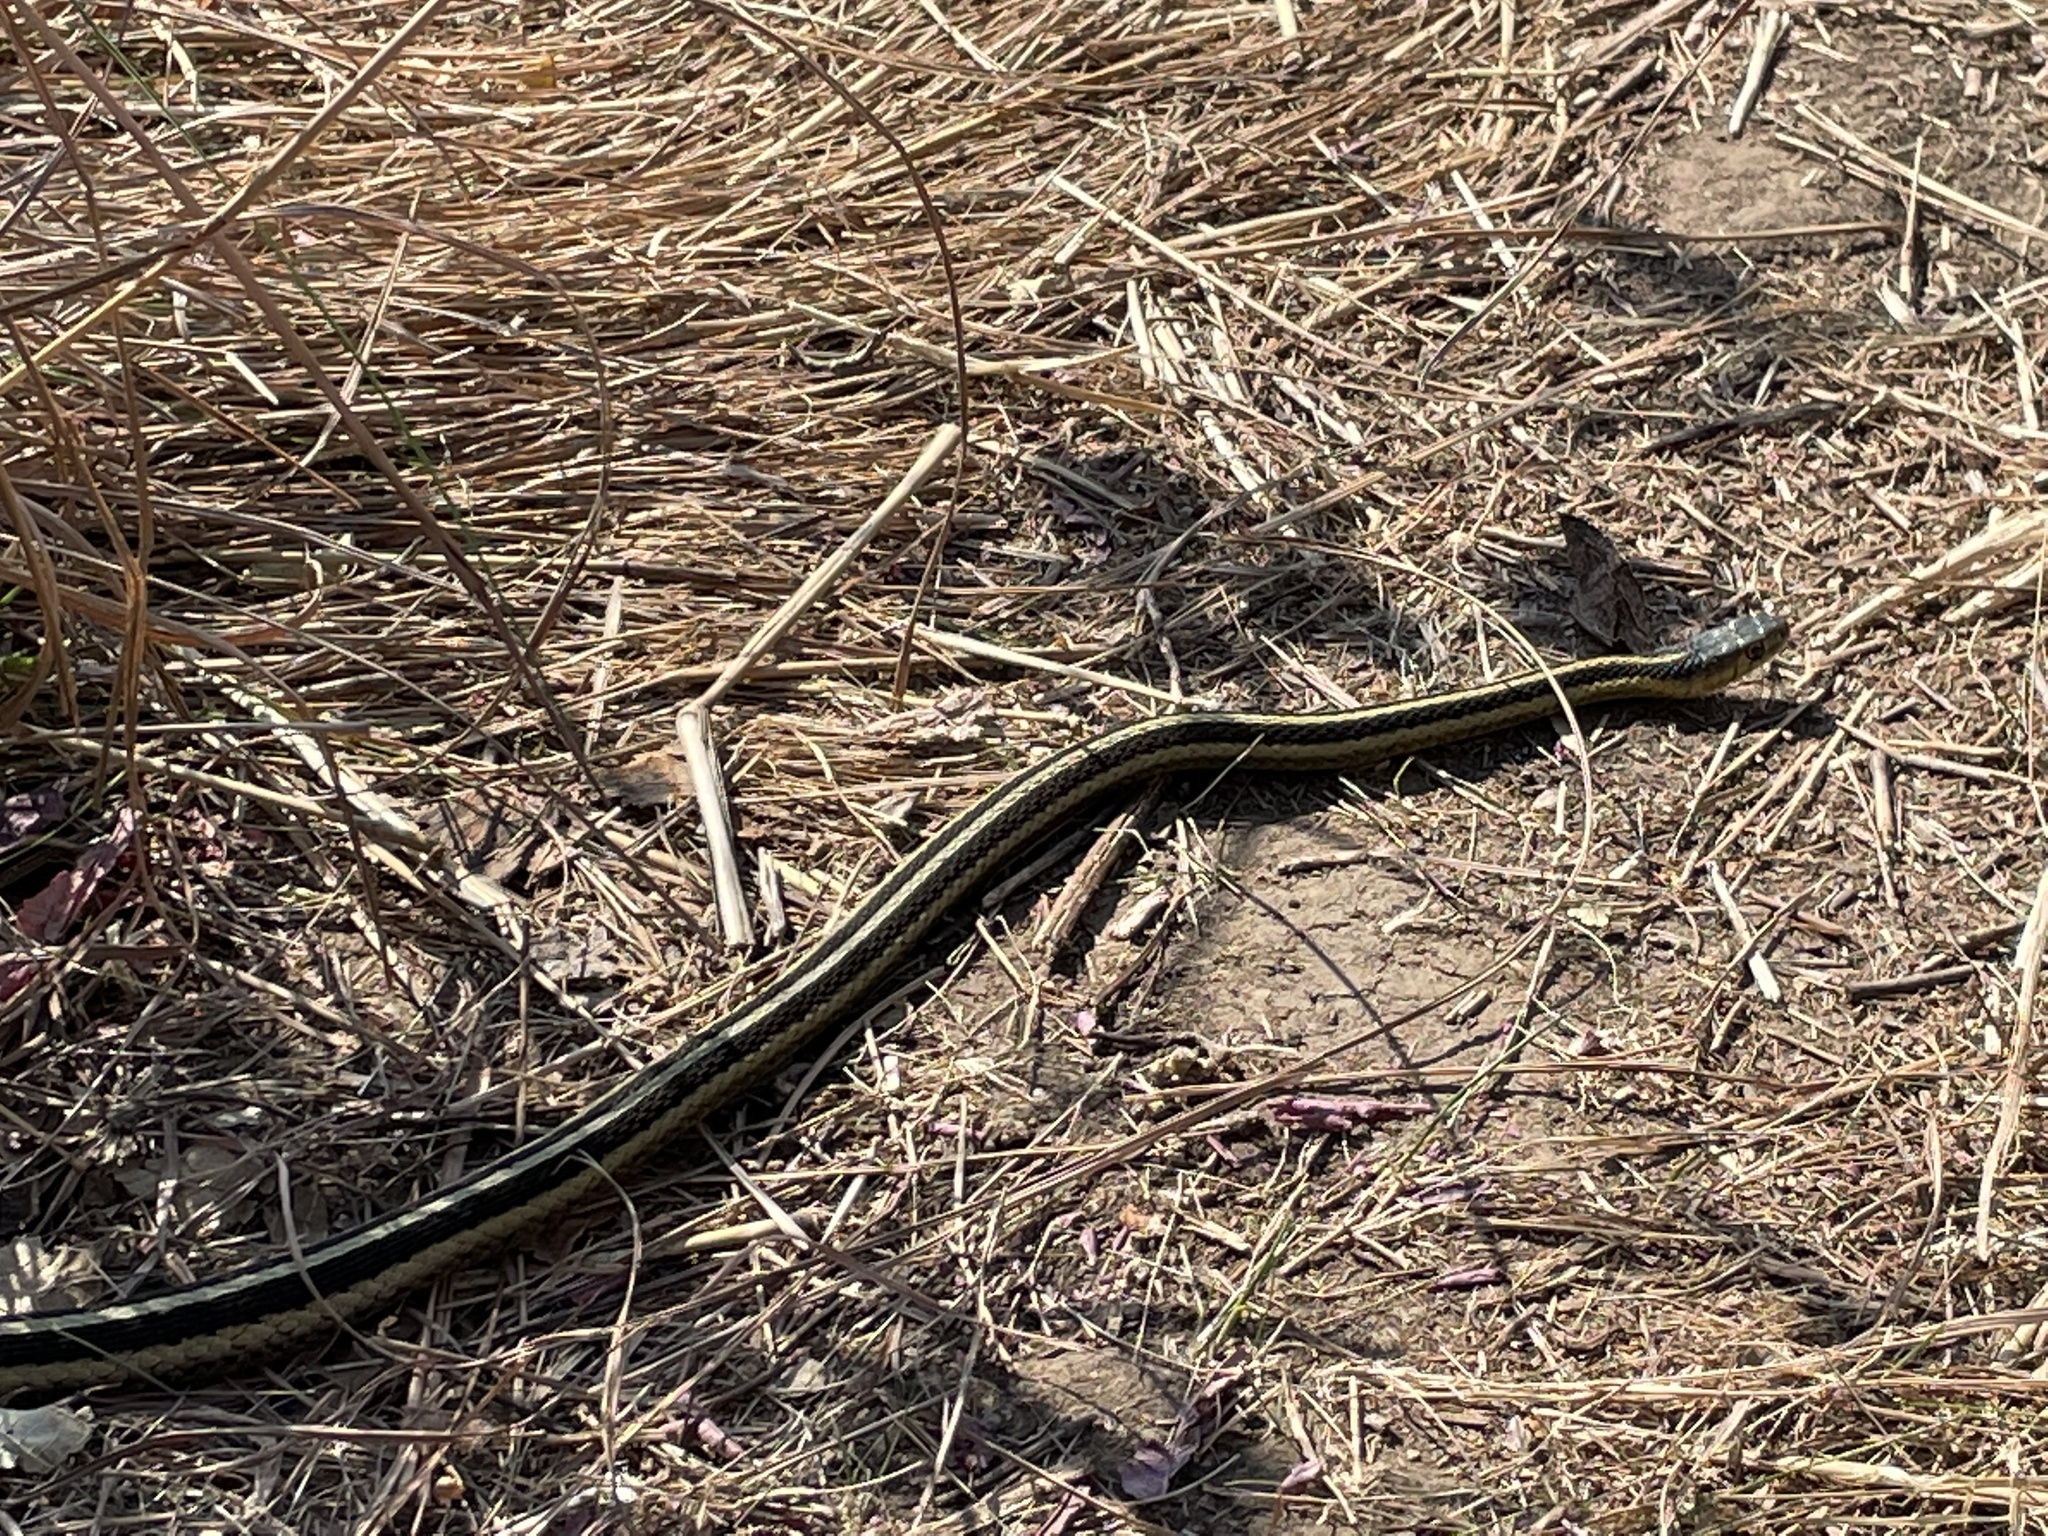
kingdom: Animalia
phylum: Chordata
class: Squamata
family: Colubridae
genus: Thamnophis
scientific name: Thamnophis sirtalis
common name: Common garter snake
